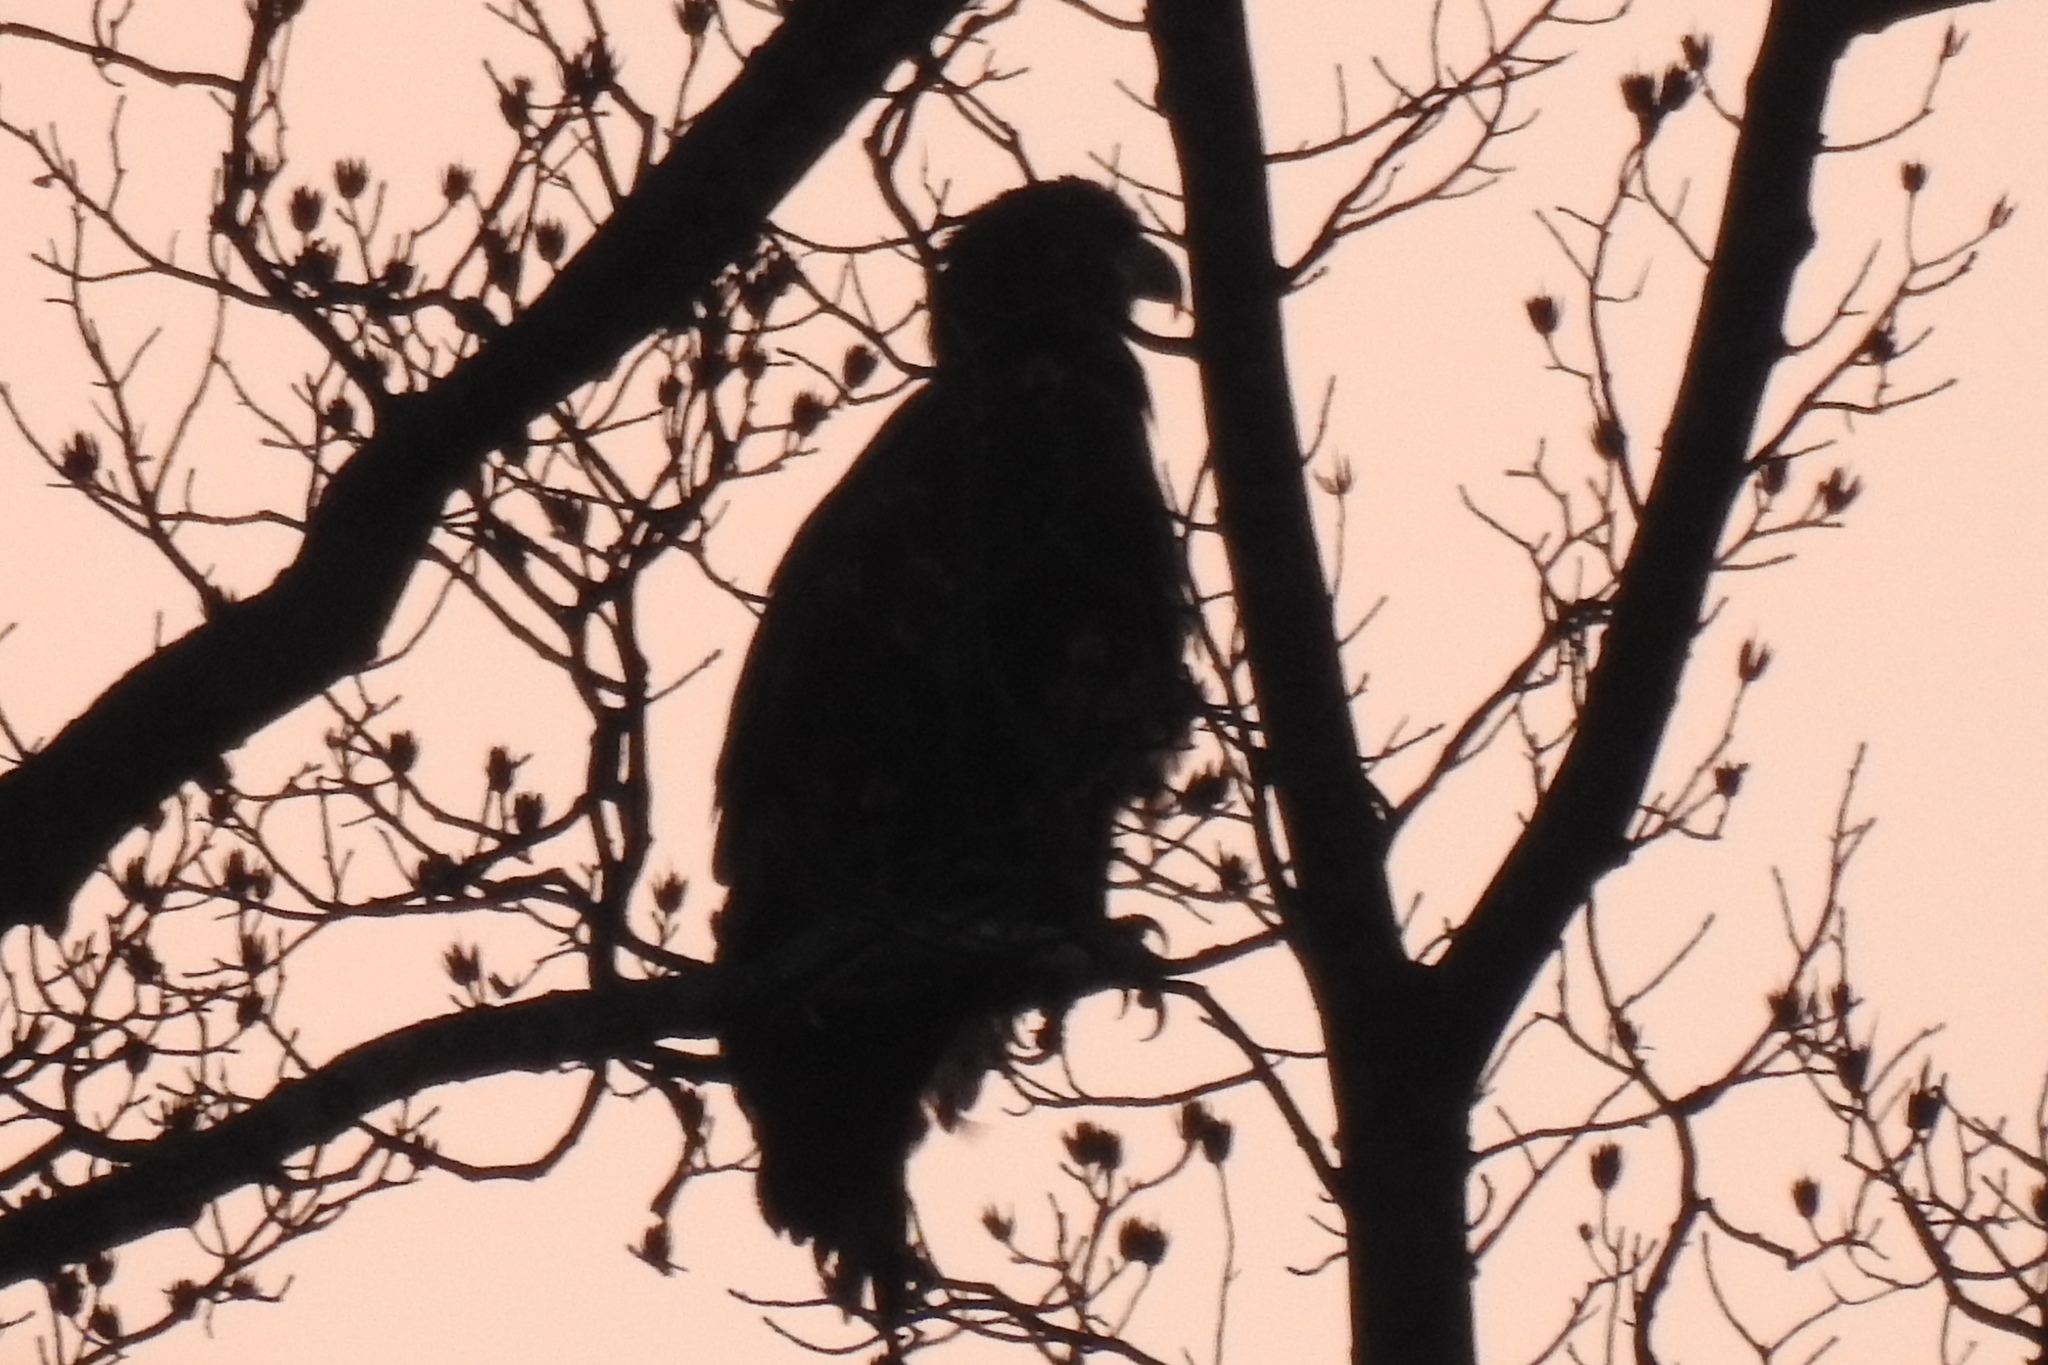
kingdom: Animalia
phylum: Chordata
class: Aves
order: Accipitriformes
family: Accipitridae
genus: Haliaeetus
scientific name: Haliaeetus leucocephalus
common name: Bald eagle
